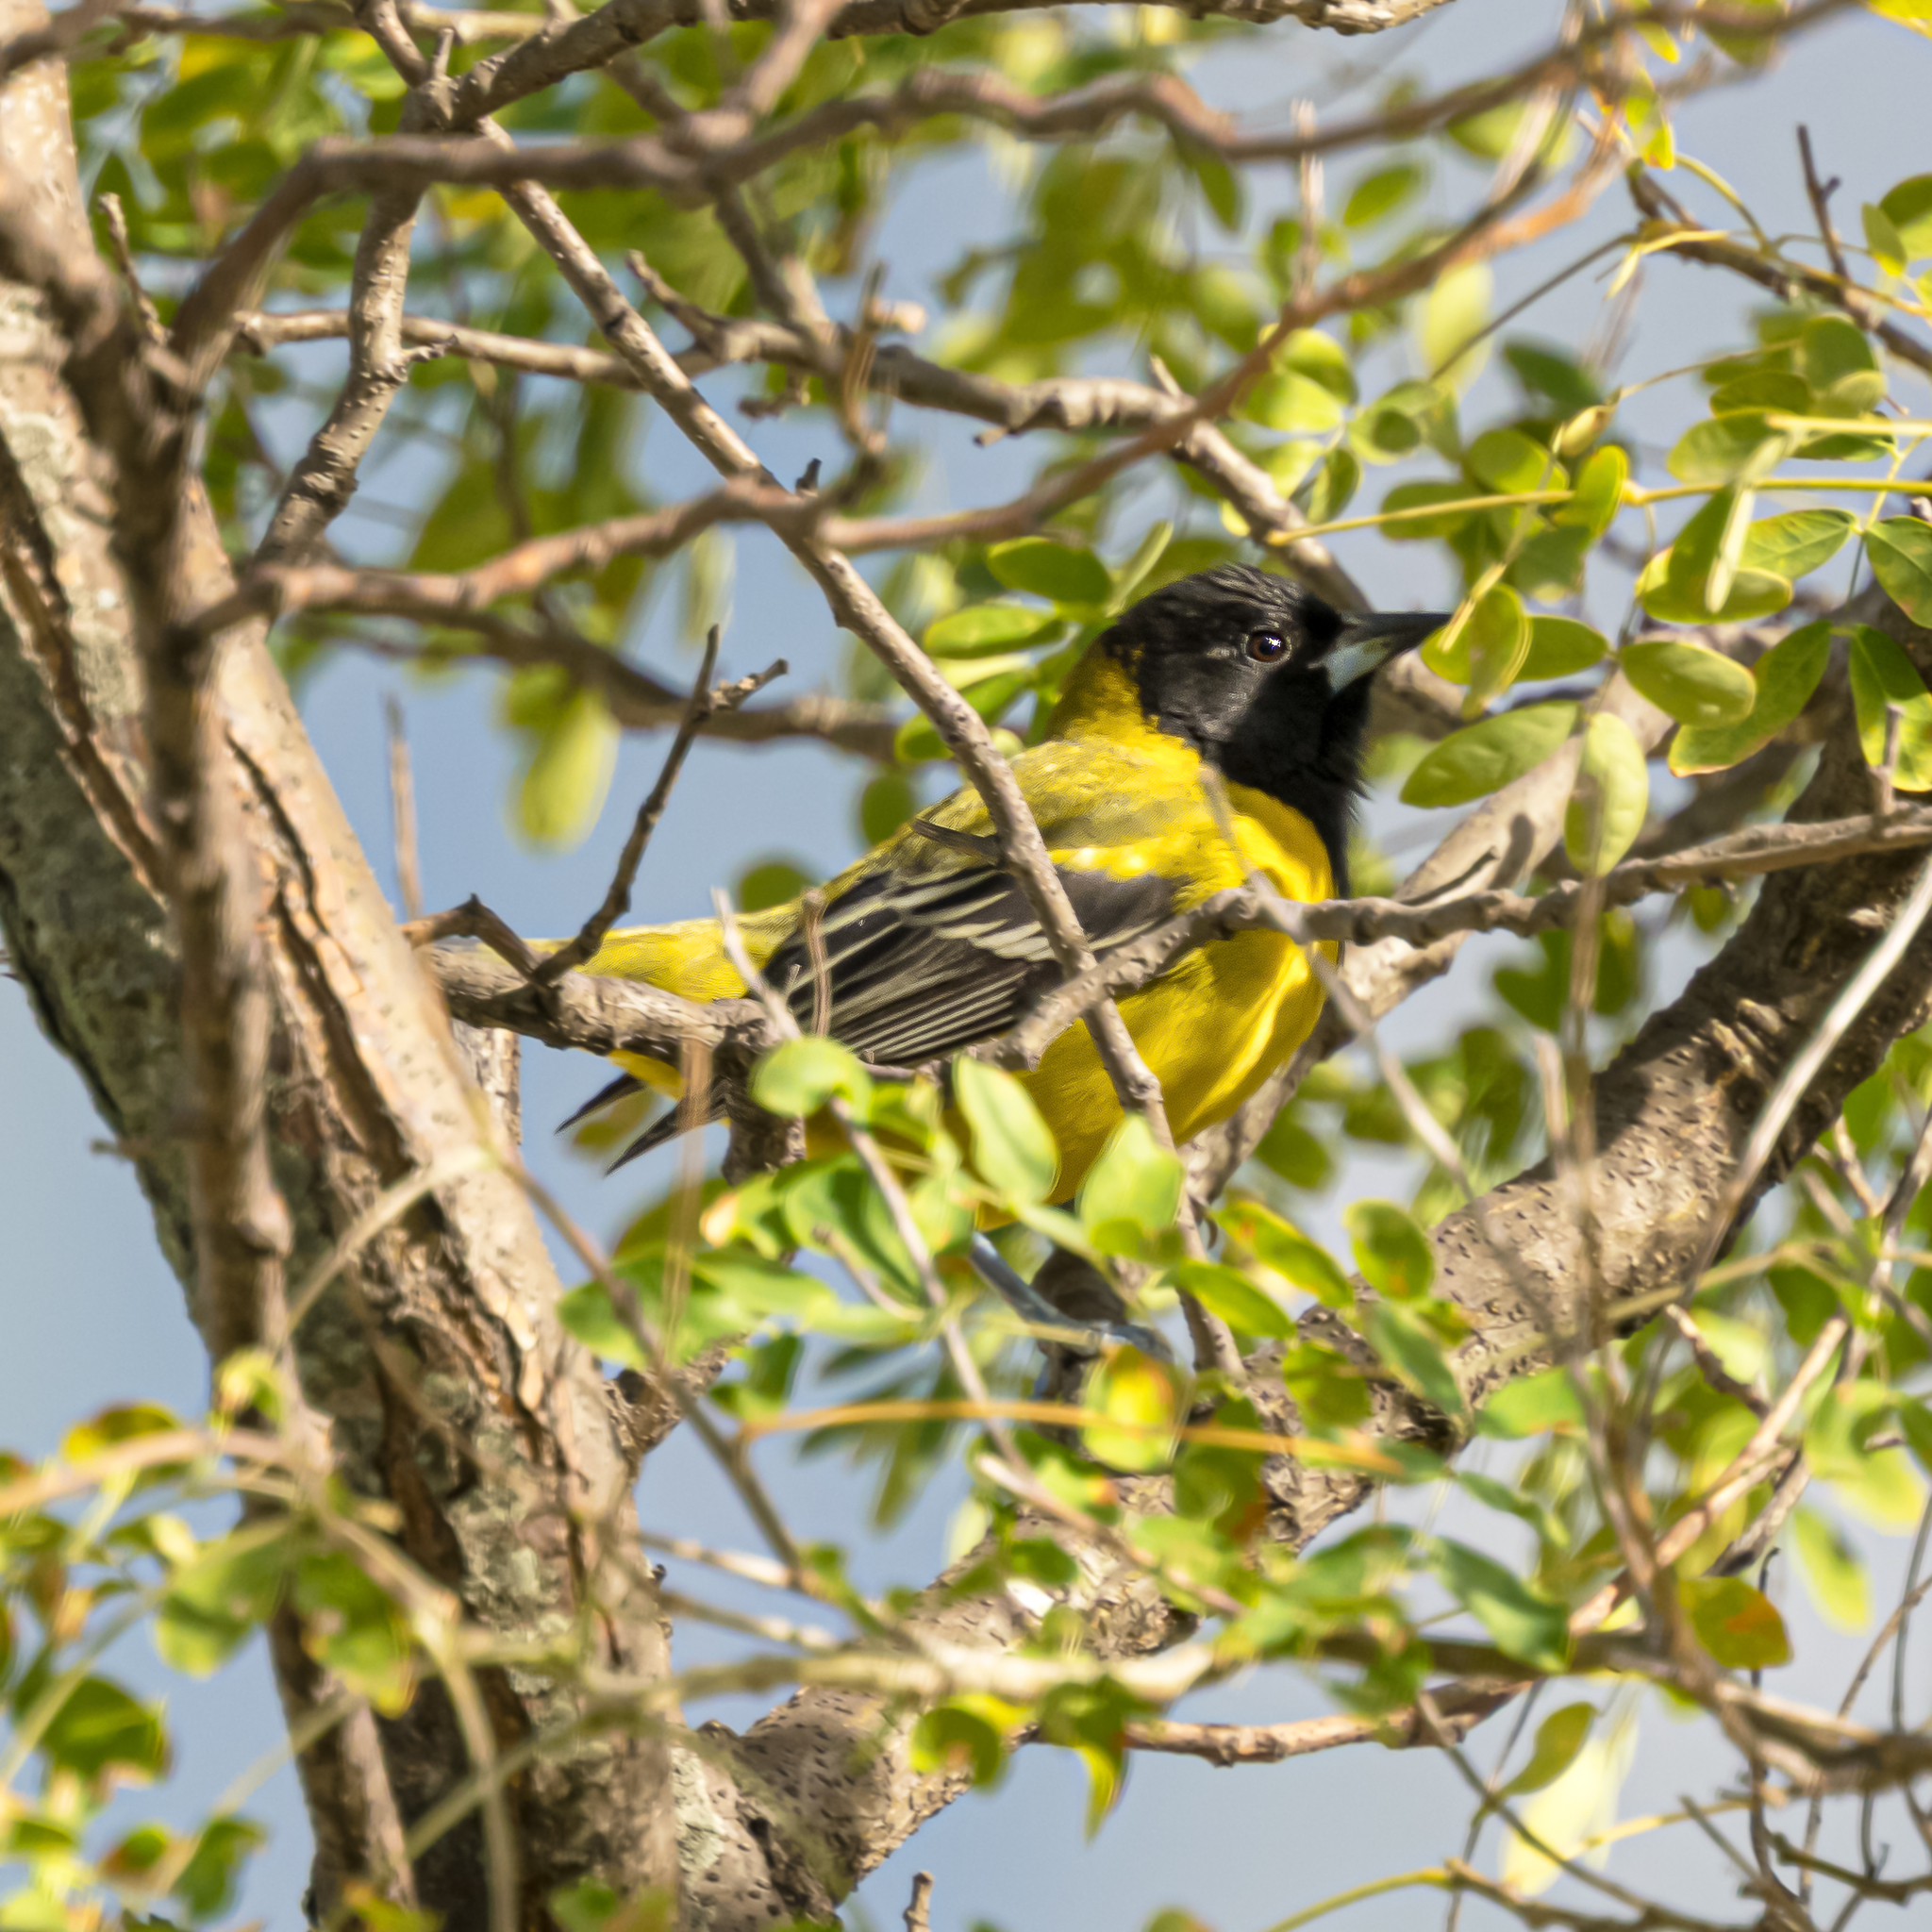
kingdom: Animalia
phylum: Chordata
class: Aves
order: Passeriformes
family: Icteridae
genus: Icterus
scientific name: Icterus graduacauda
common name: Audubon's oriole
